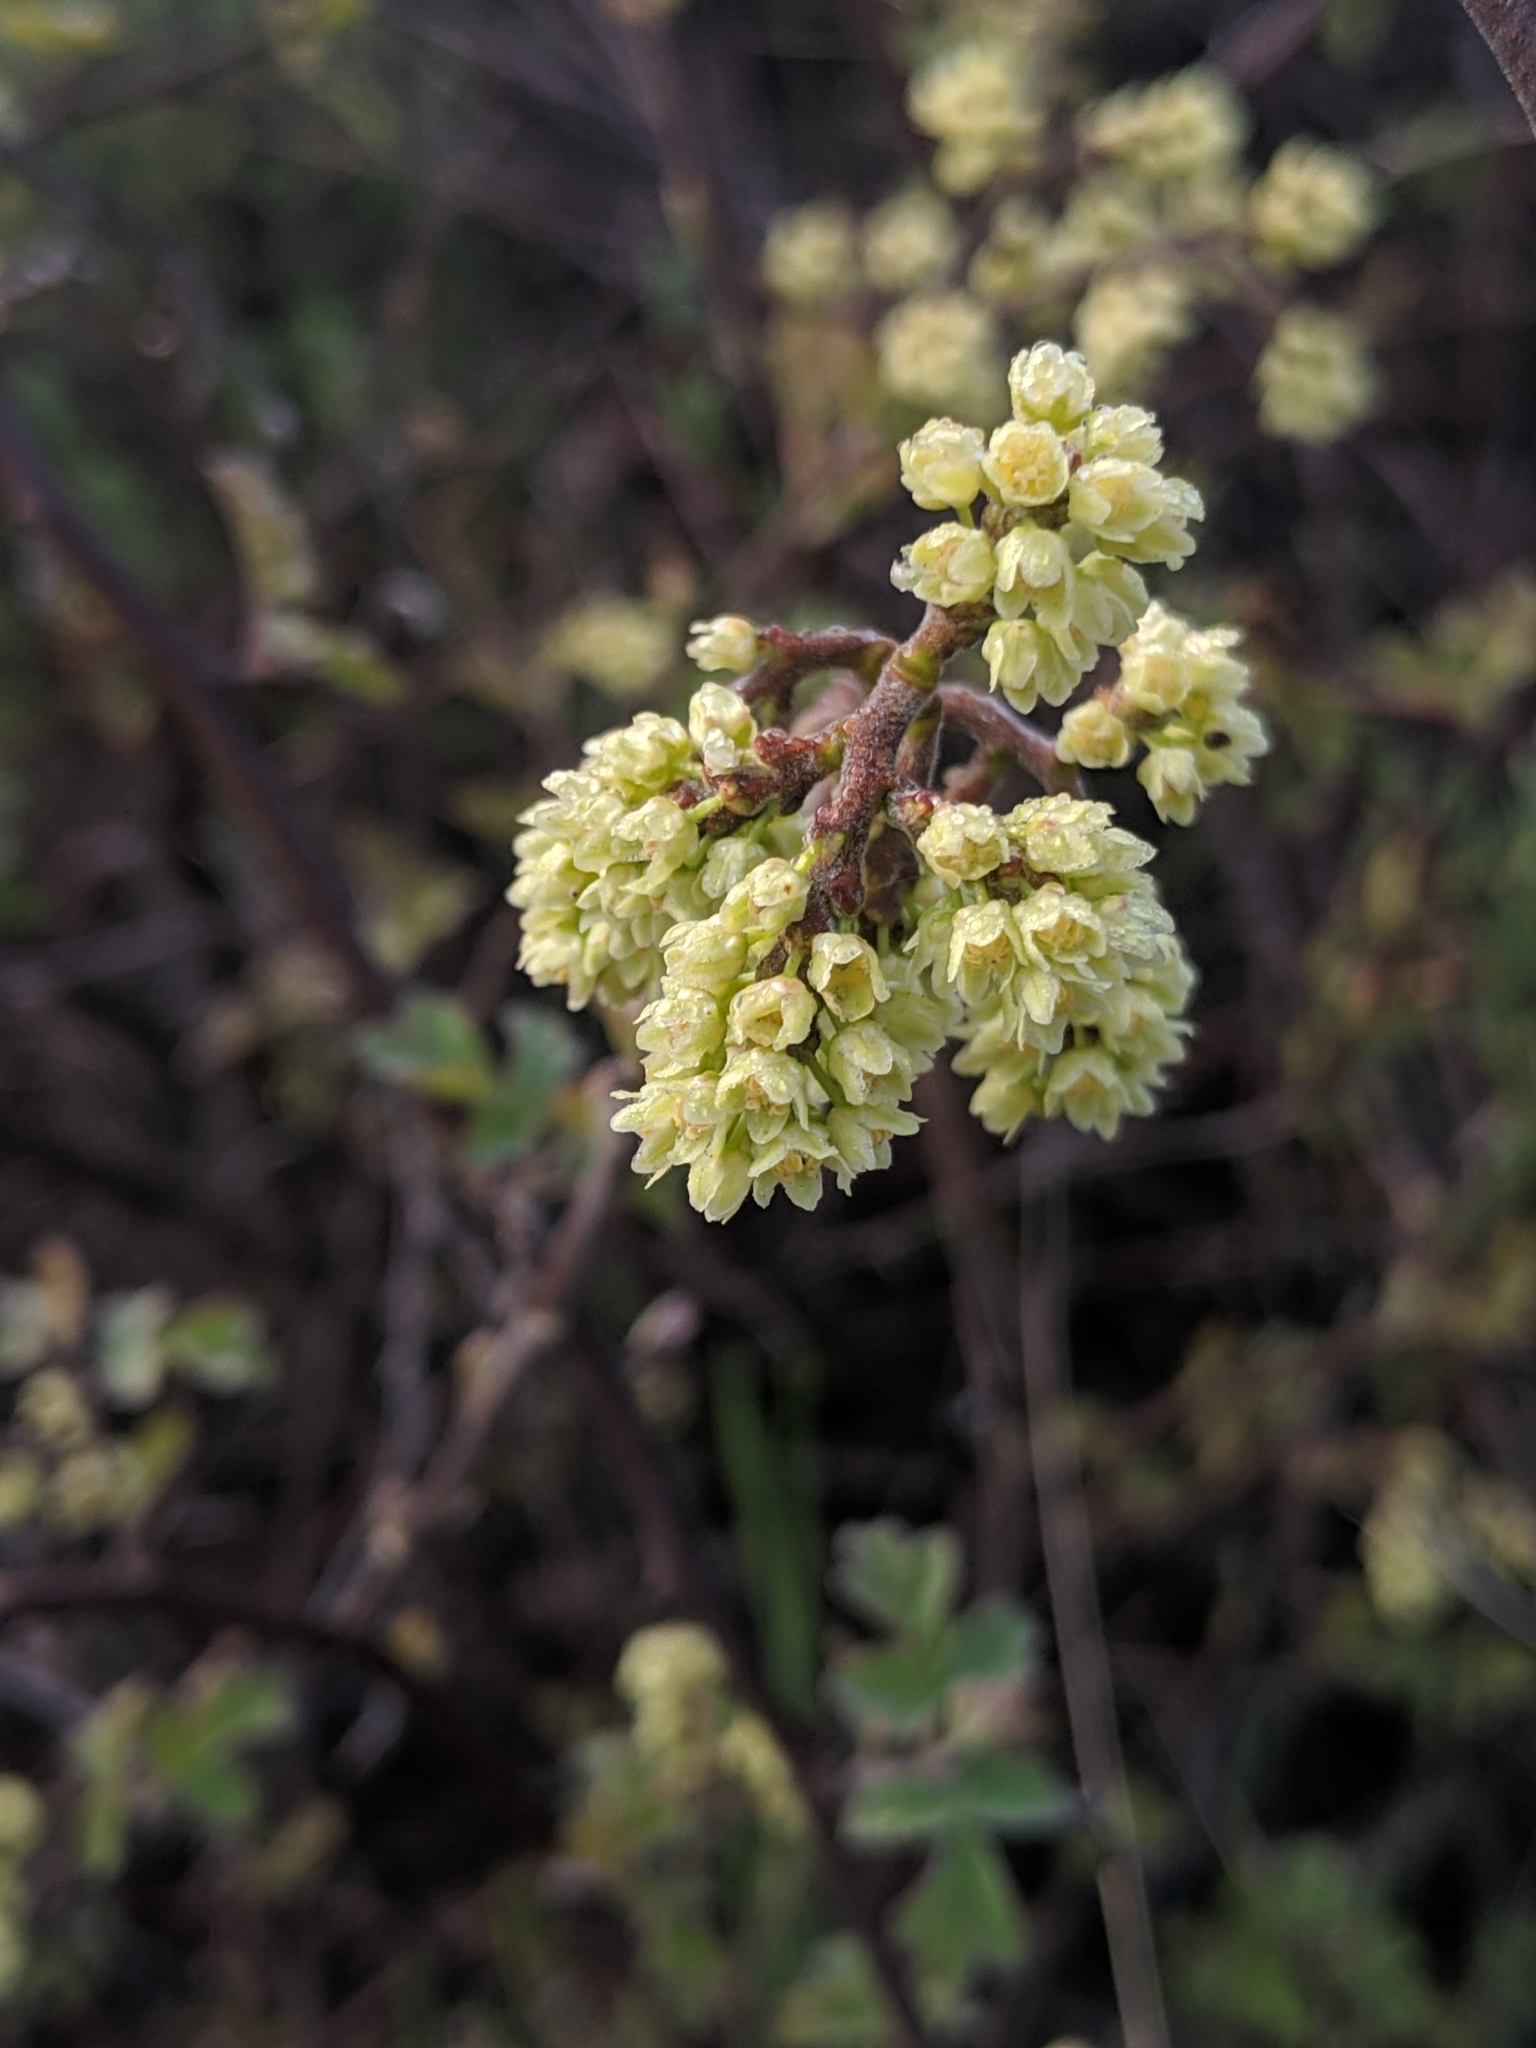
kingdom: Plantae
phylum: Tracheophyta
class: Magnoliopsida
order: Sapindales
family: Anacardiaceae
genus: Rhus
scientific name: Rhus aromatica
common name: Aromatic sumac
